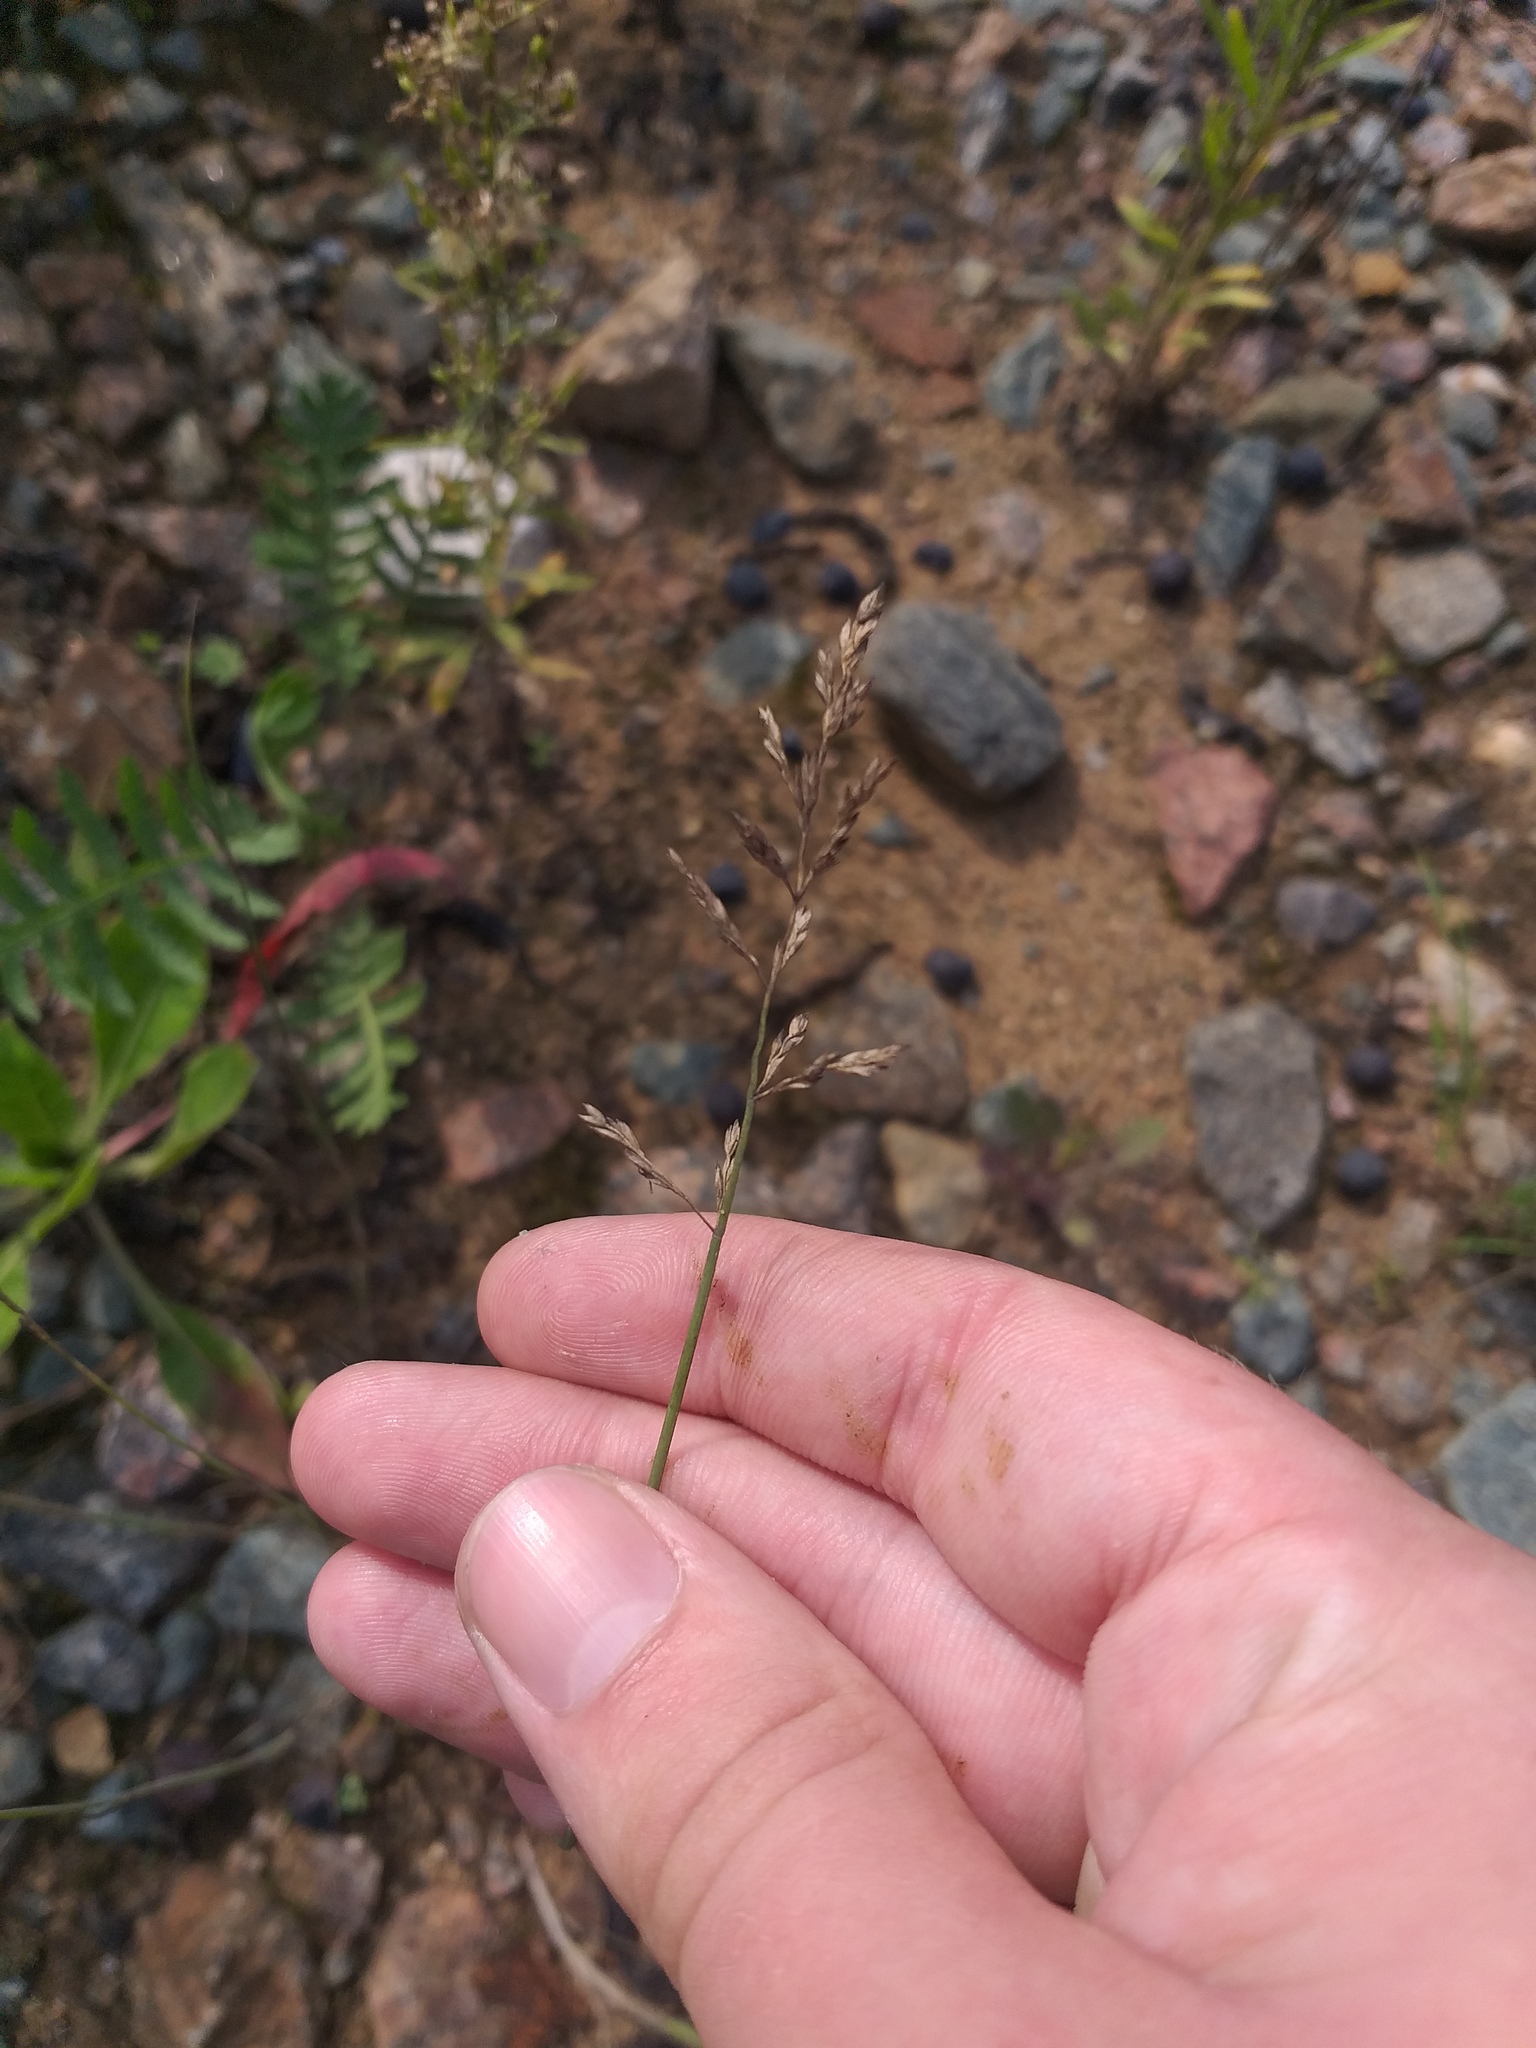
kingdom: Plantae
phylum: Tracheophyta
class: Liliopsida
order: Poales
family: Poaceae
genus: Poa
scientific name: Poa compressa
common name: Canada bluegrass
